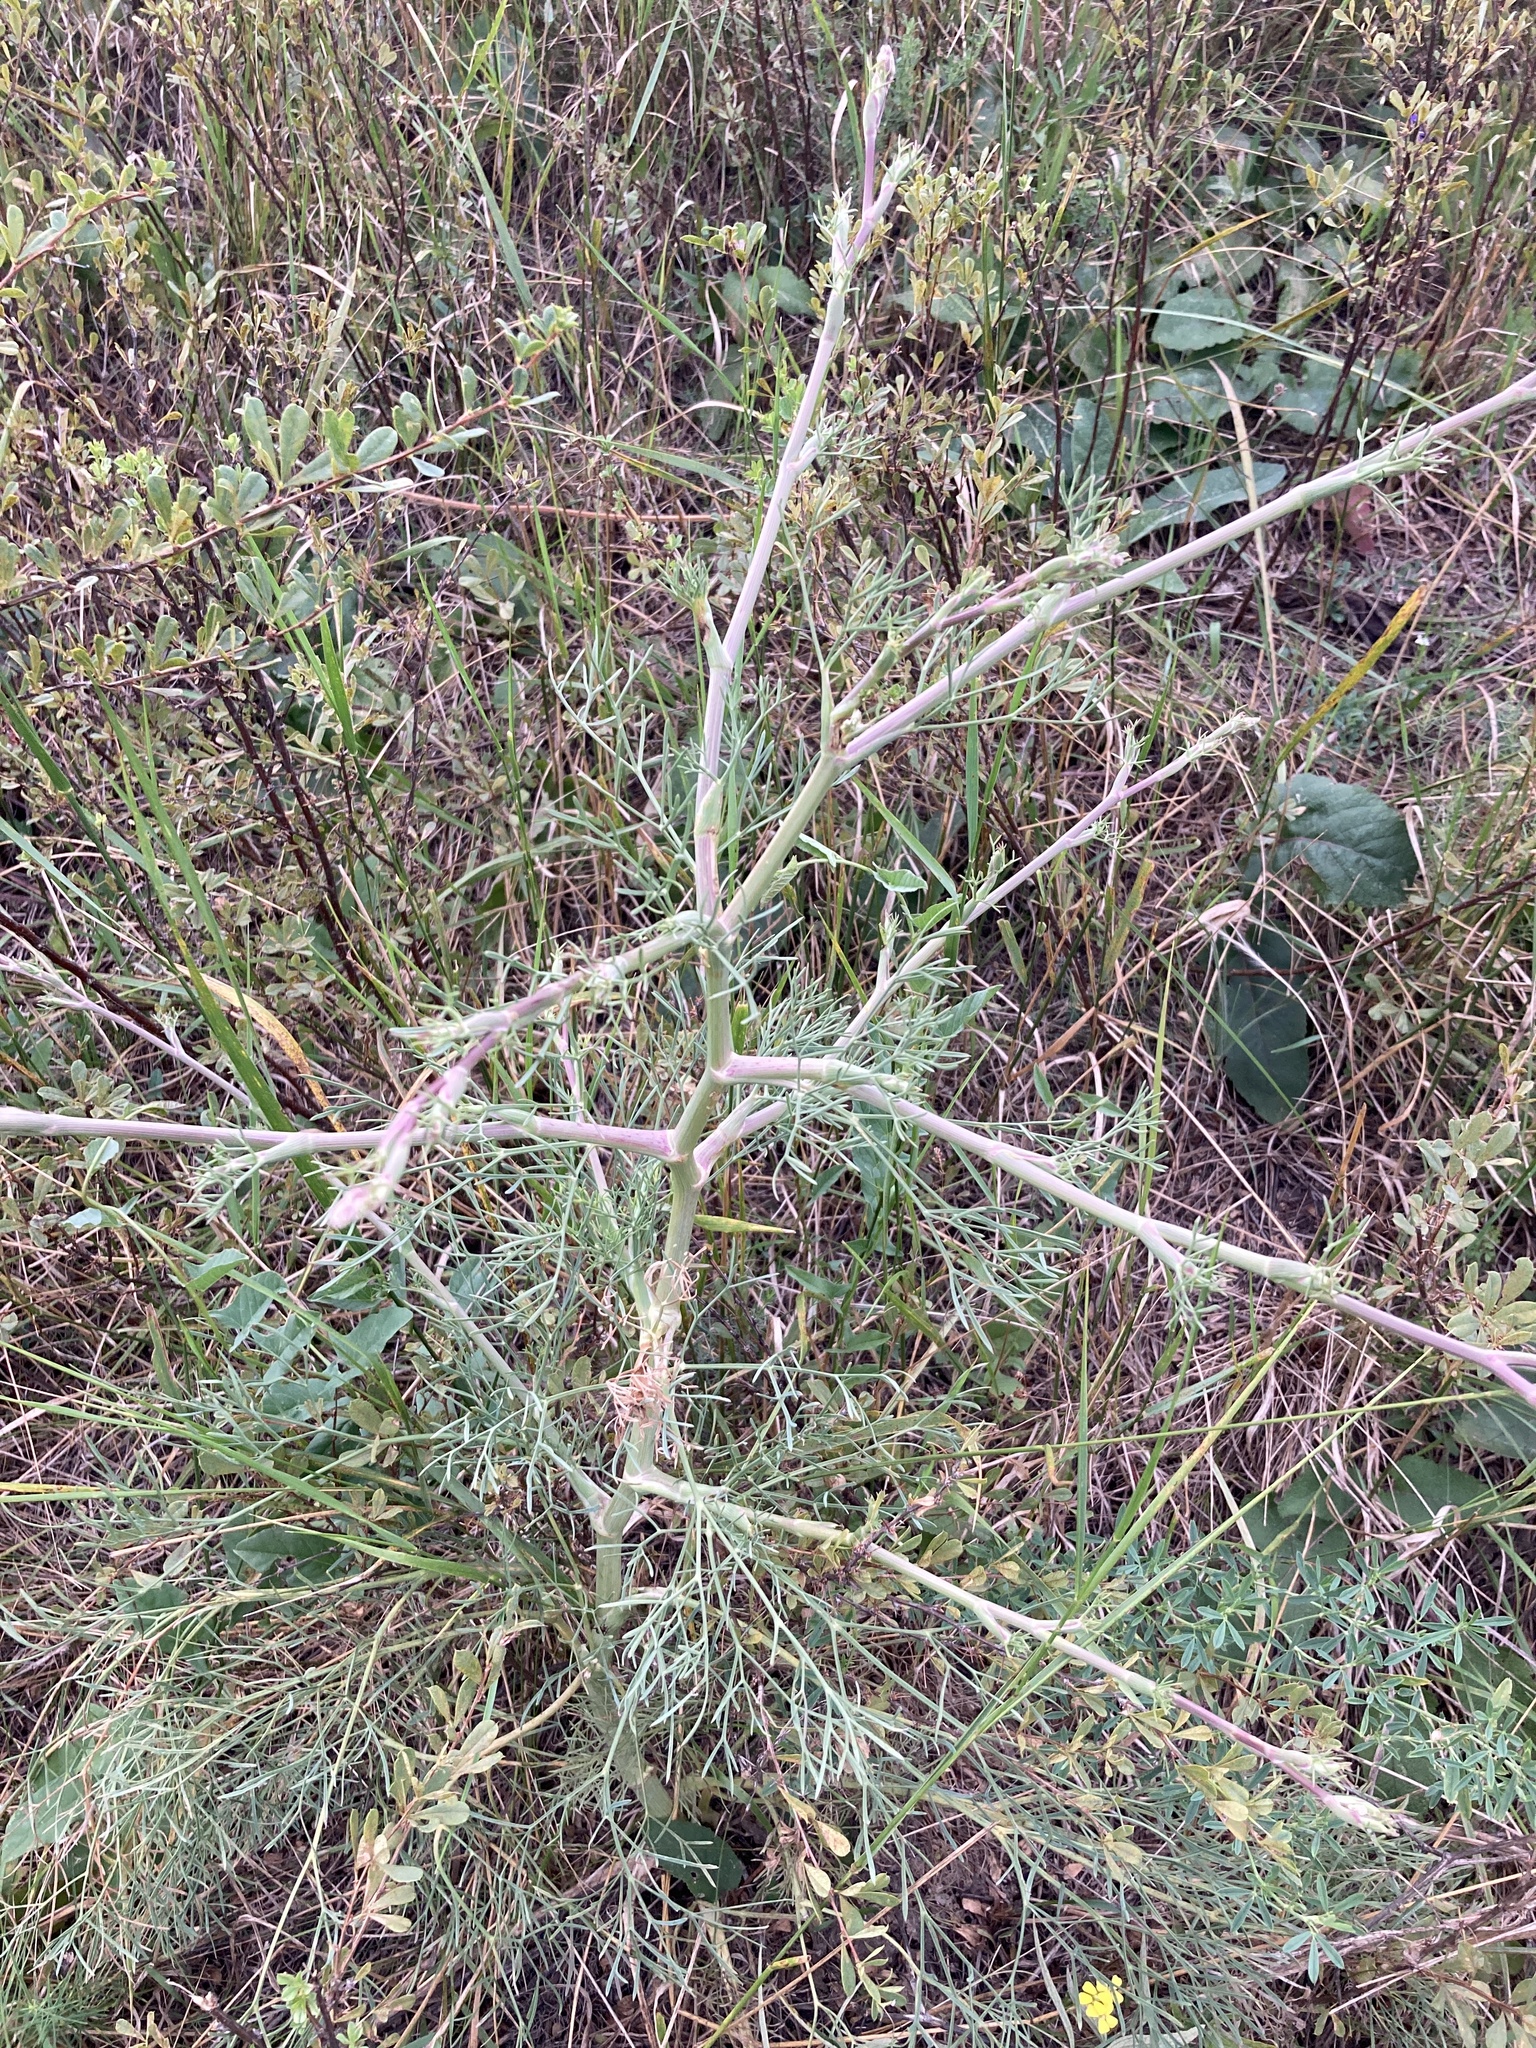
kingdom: Plantae
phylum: Tracheophyta
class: Magnoliopsida
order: Apiales
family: Apiaceae
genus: Seseli
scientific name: Seseli arenarium
